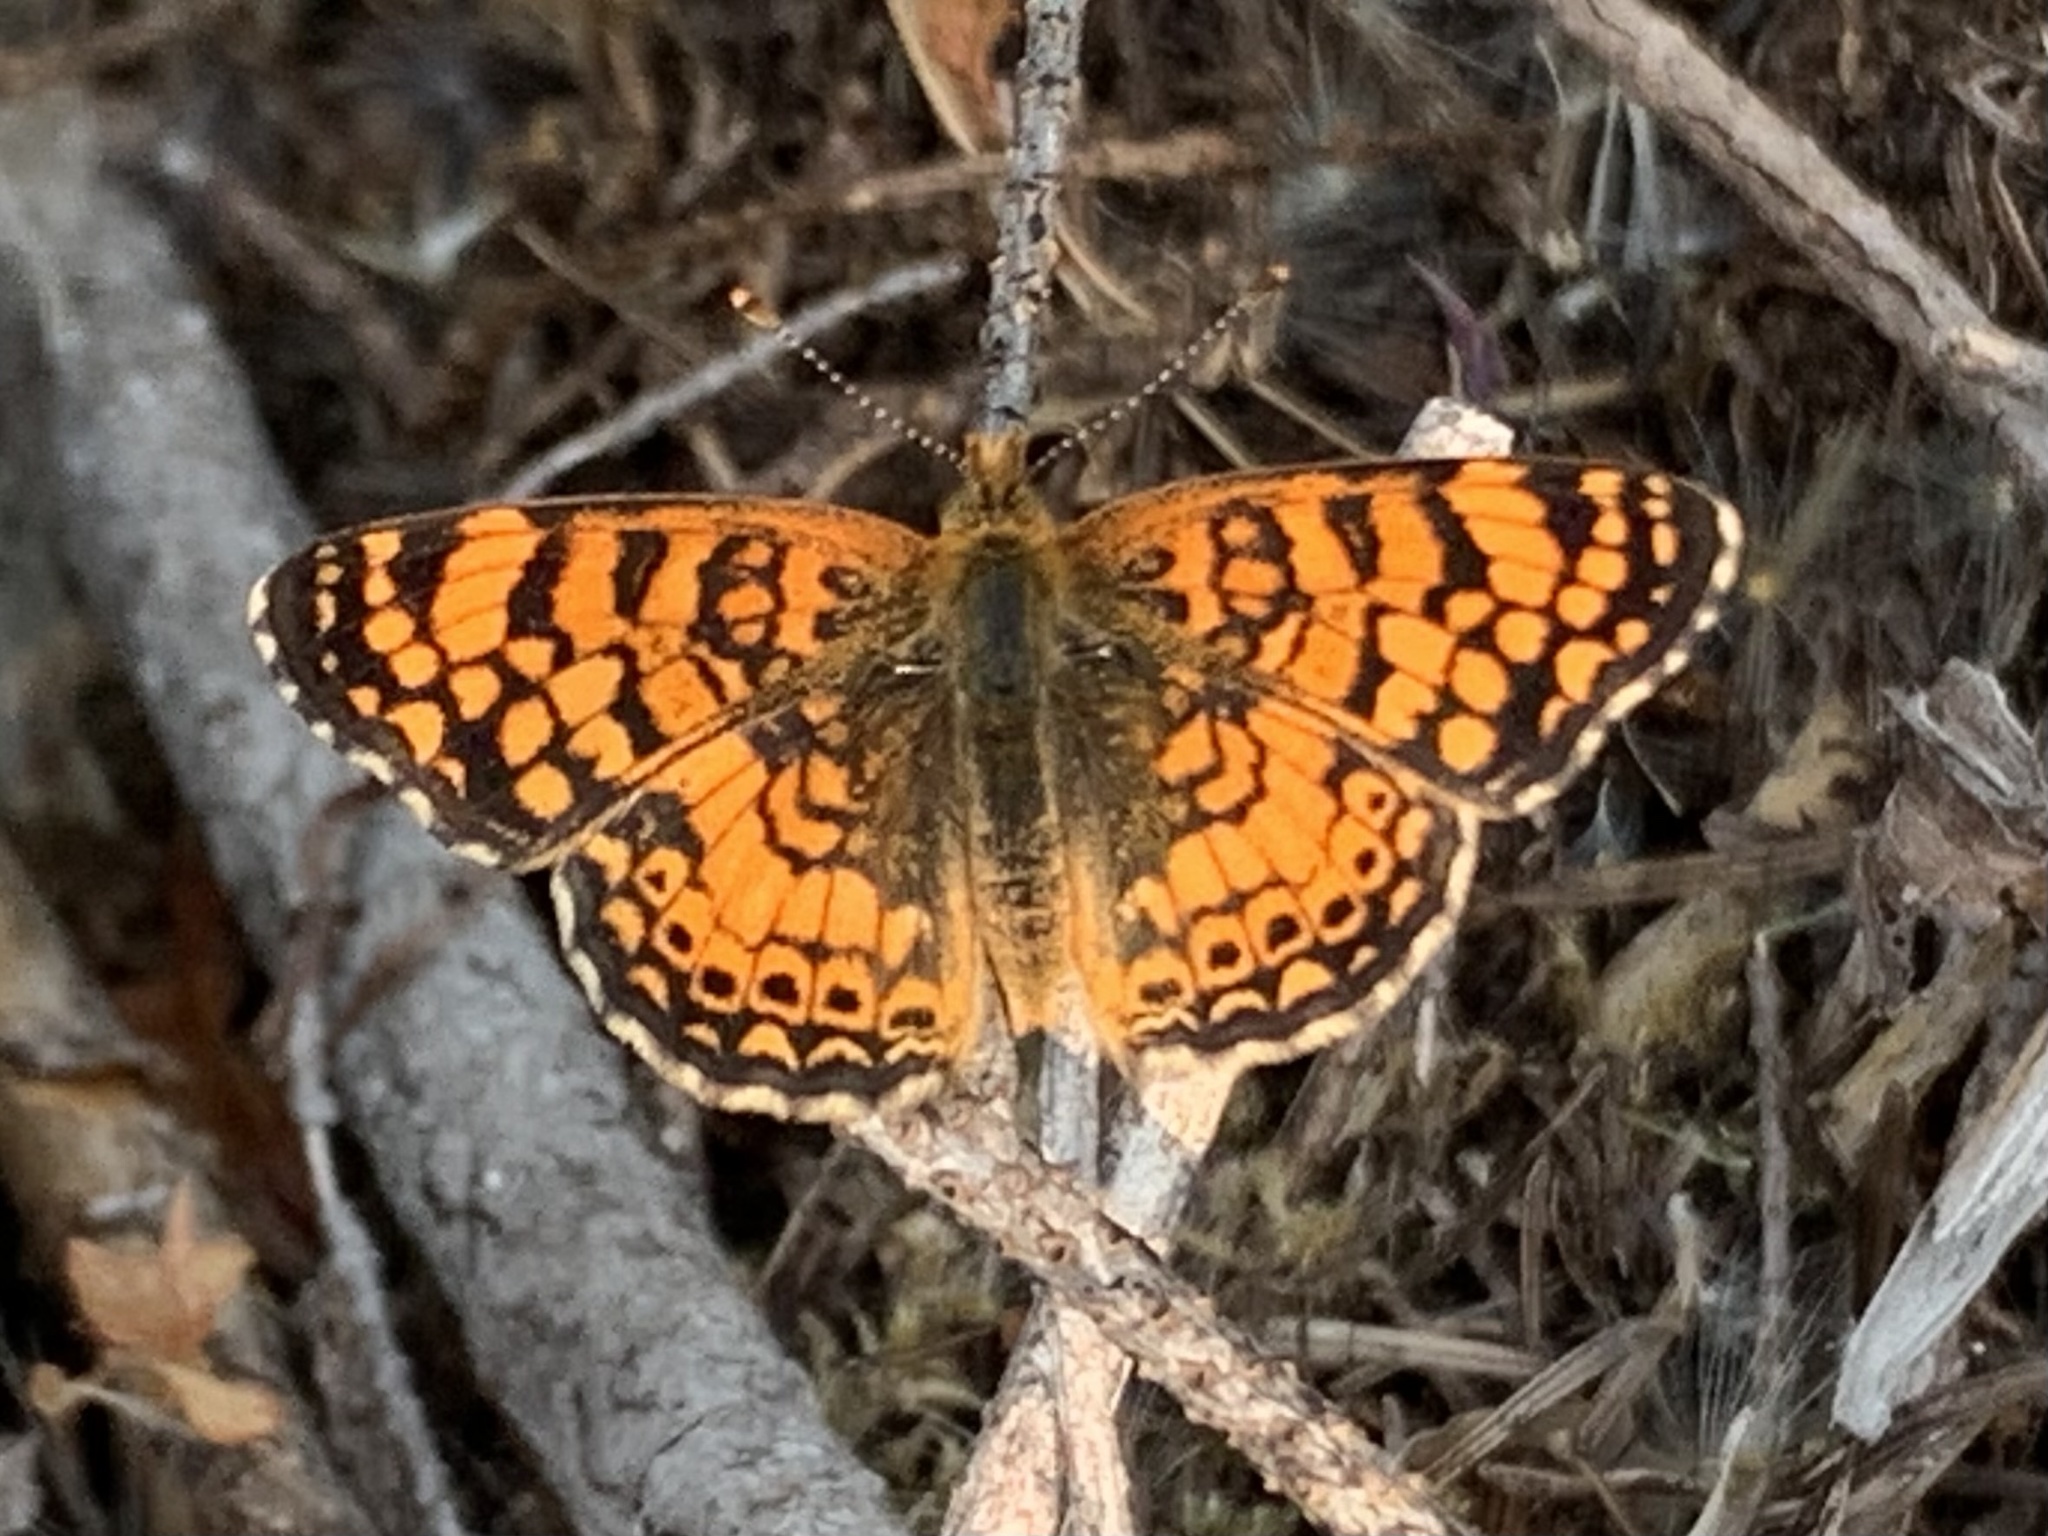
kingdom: Animalia
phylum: Arthropoda
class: Insecta
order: Lepidoptera
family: Nymphalidae
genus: Eresia
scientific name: Eresia aveyrona
